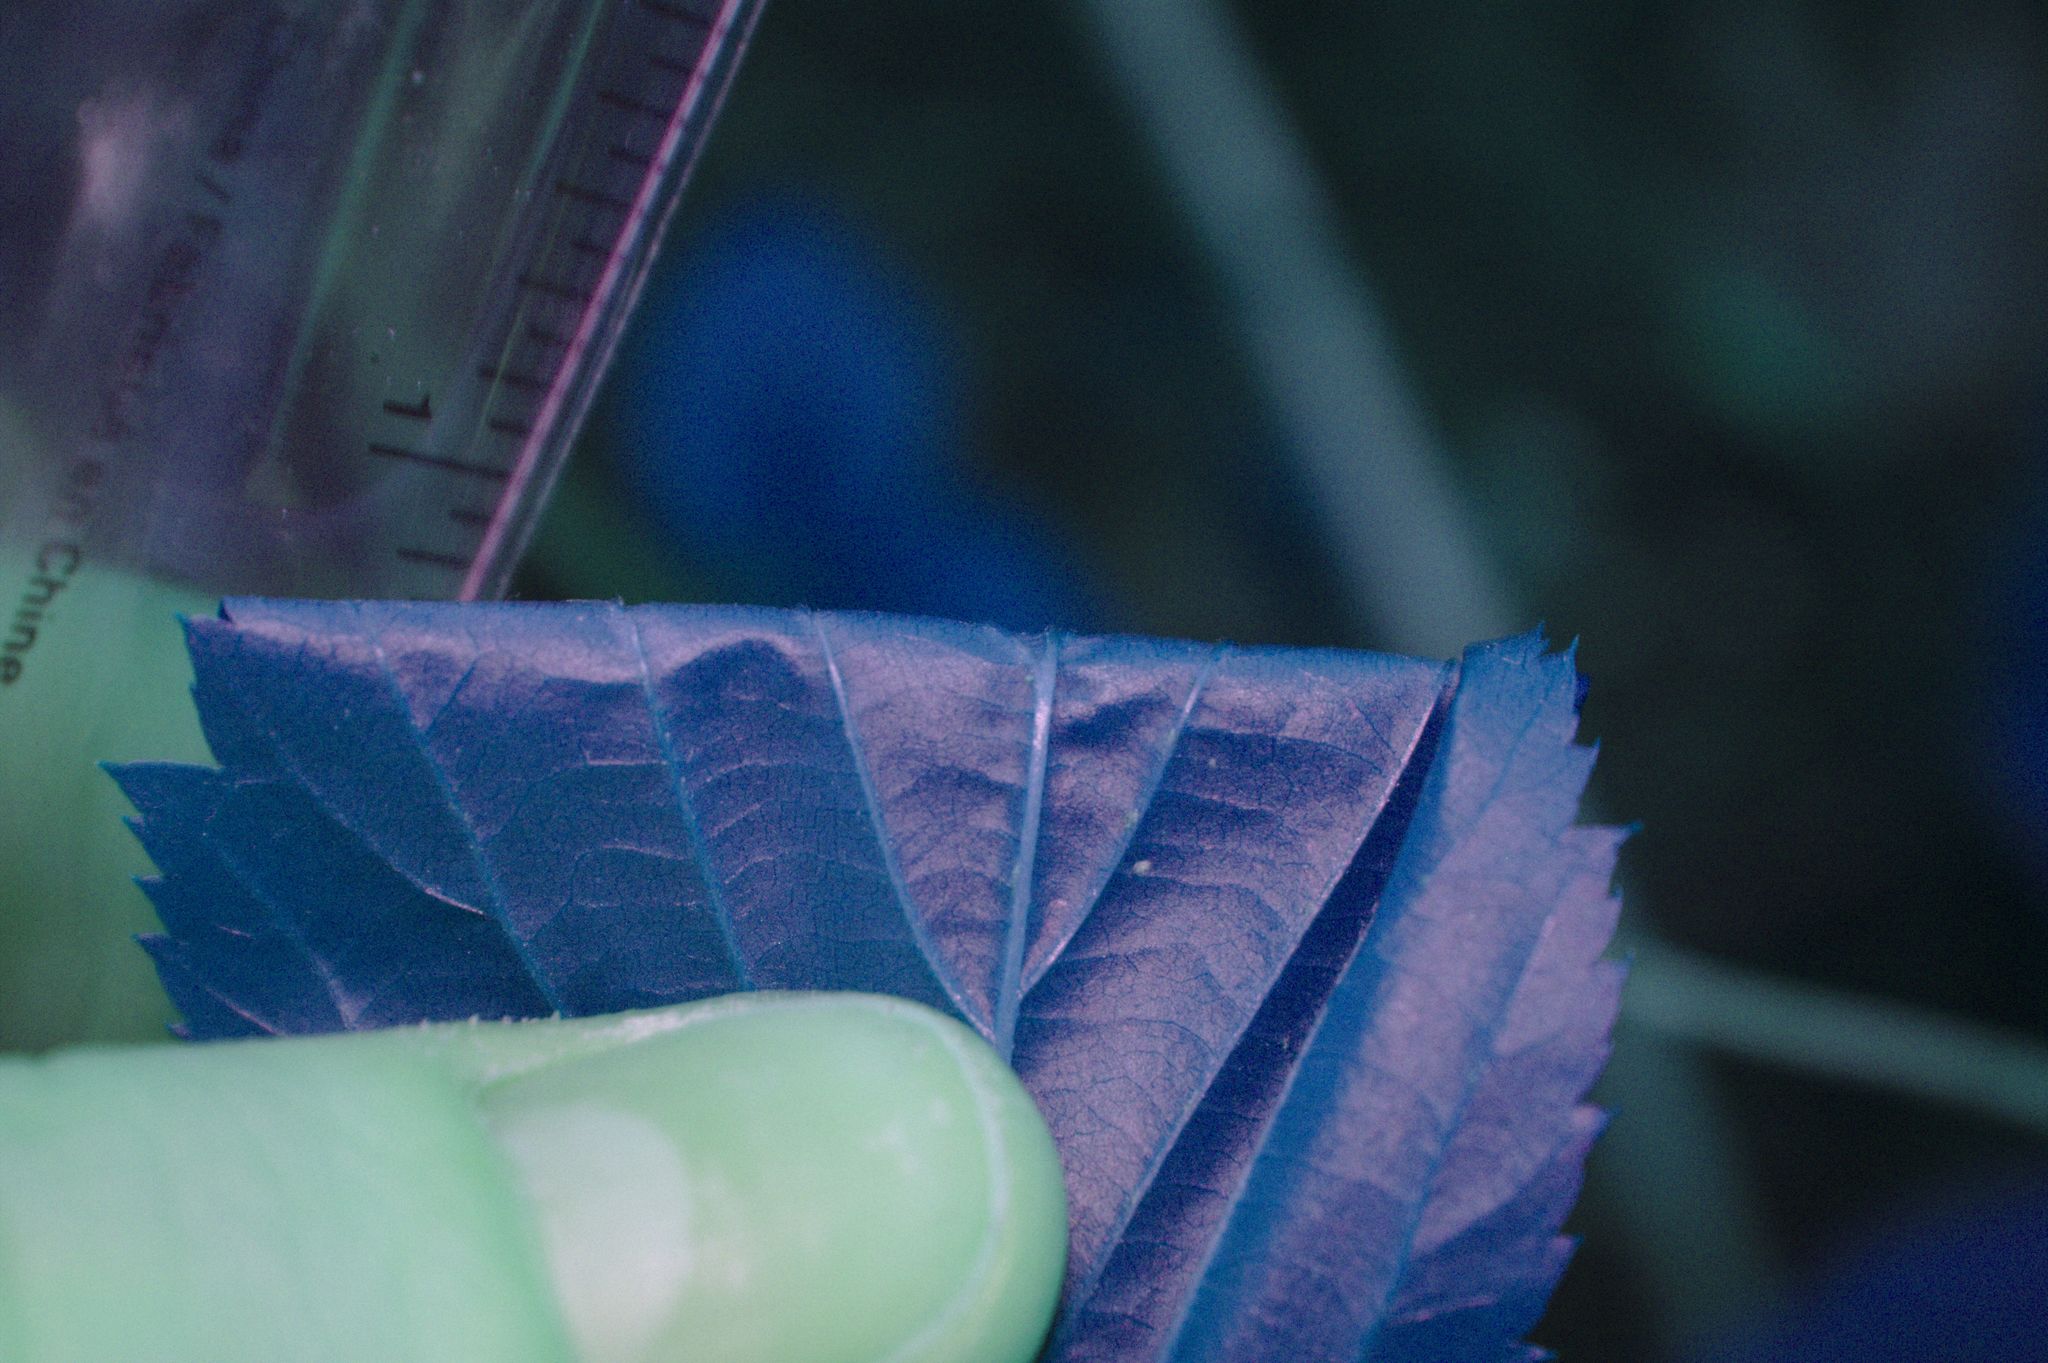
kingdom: Plantae
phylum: Tracheophyta
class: Magnoliopsida
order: Rosales
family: Rosaceae
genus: Rubus
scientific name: Rubus canadensis
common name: Smooth blackberry
